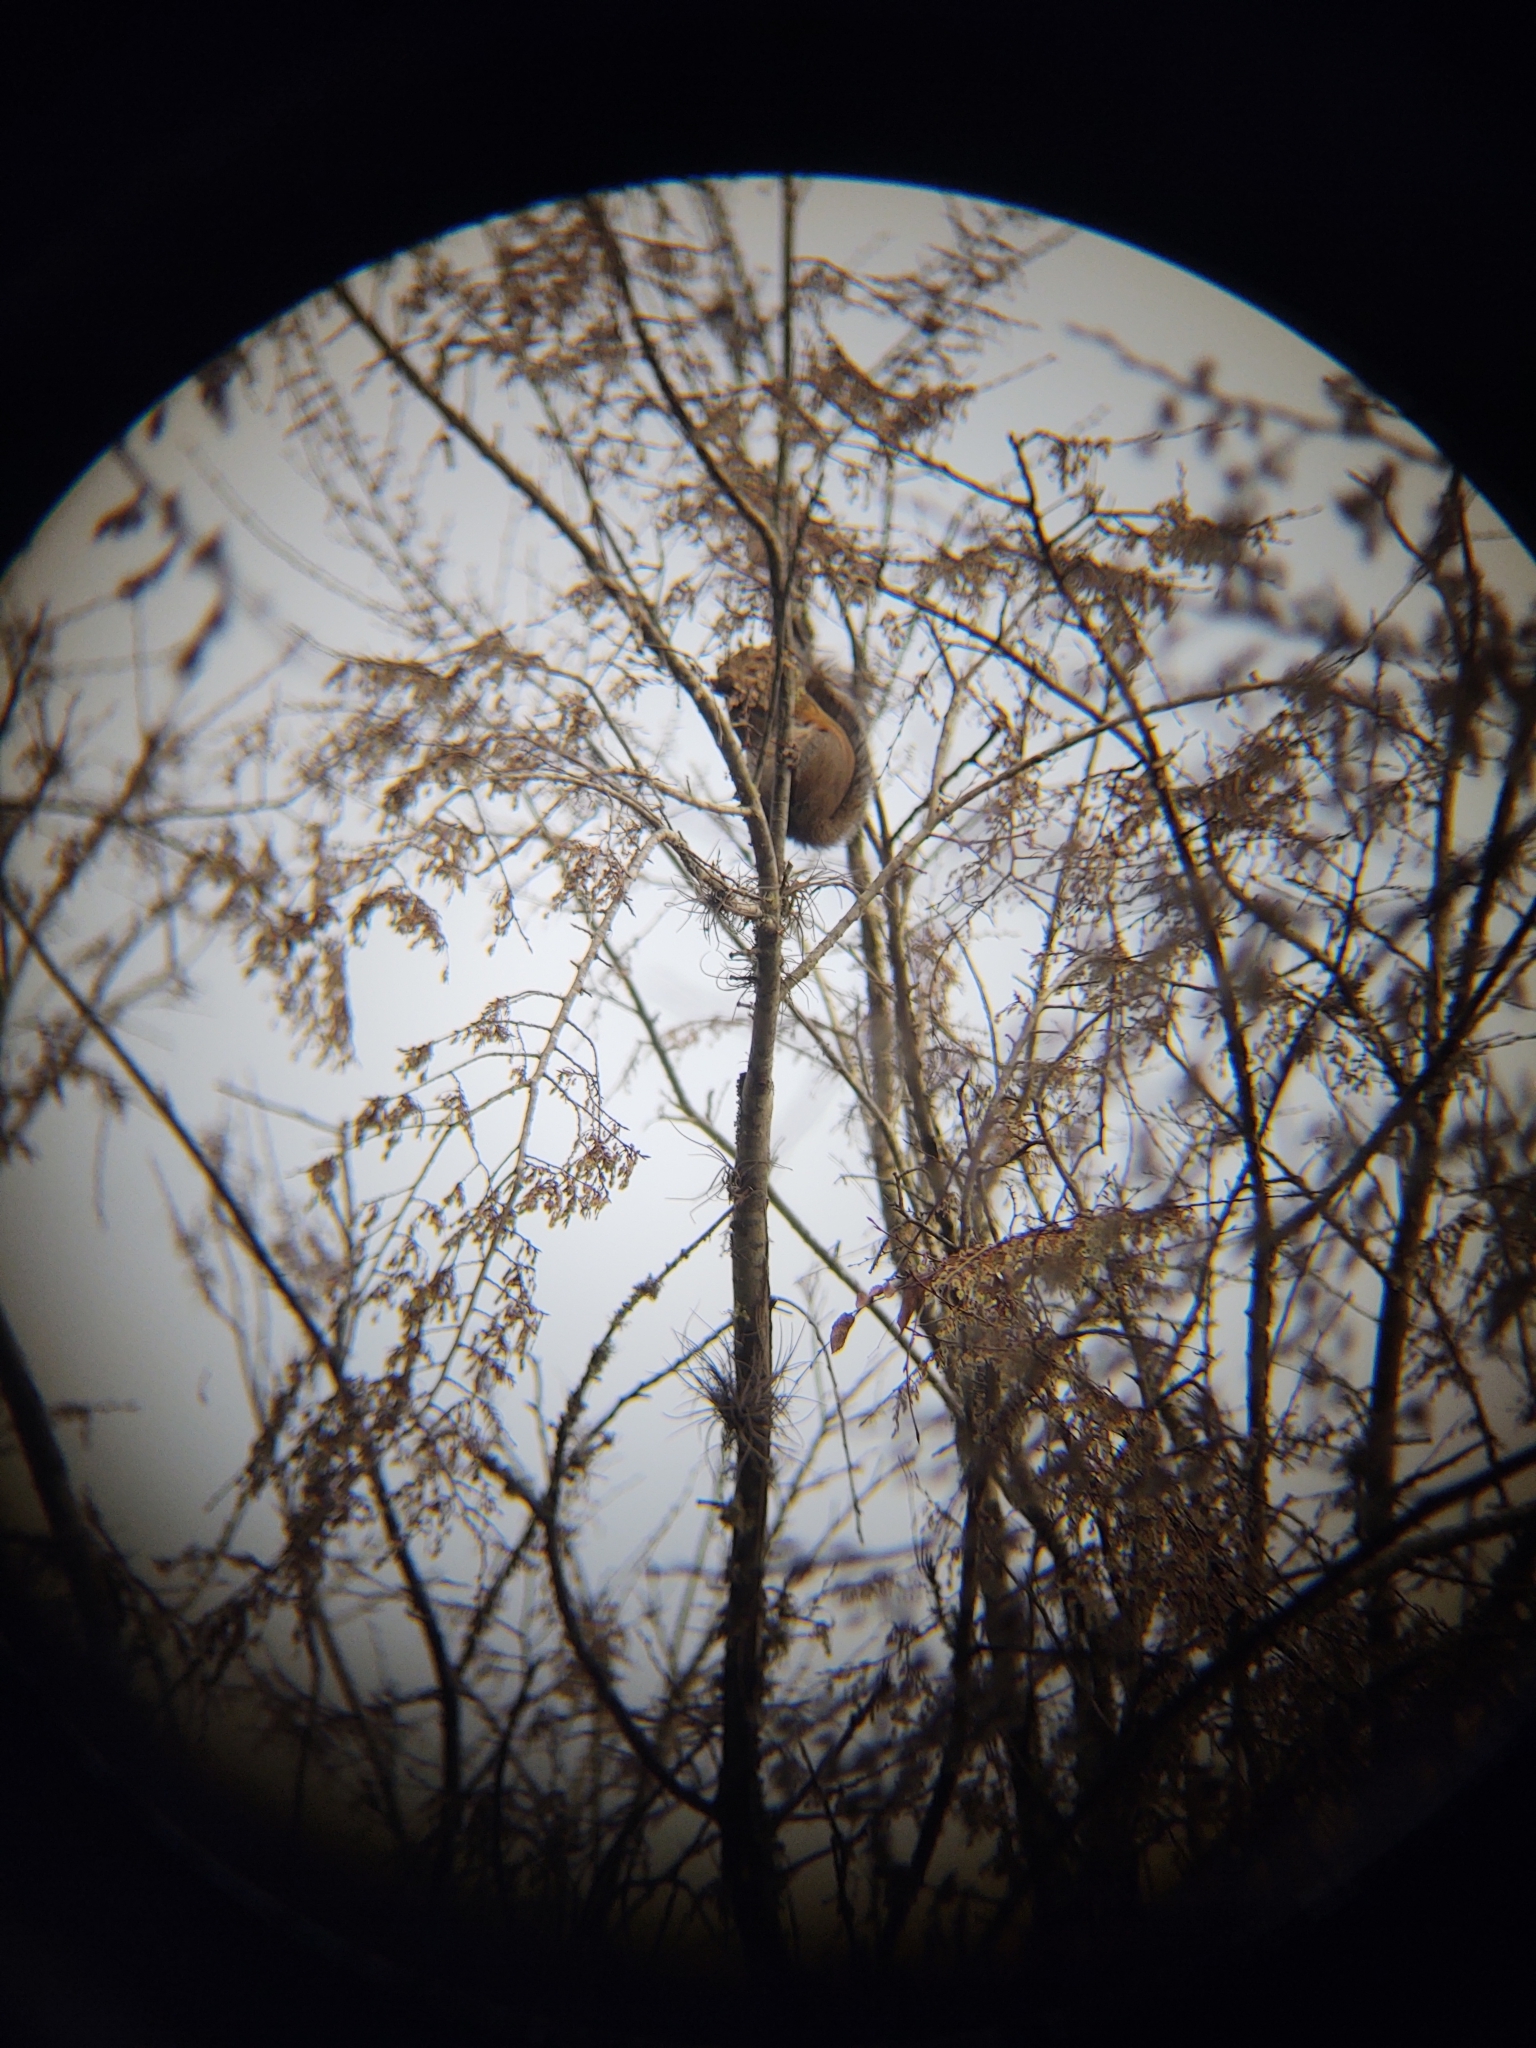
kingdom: Animalia
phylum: Chordata
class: Mammalia
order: Rodentia
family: Sciuridae
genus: Sciurus
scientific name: Sciurus carolinensis
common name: Eastern gray squirrel
